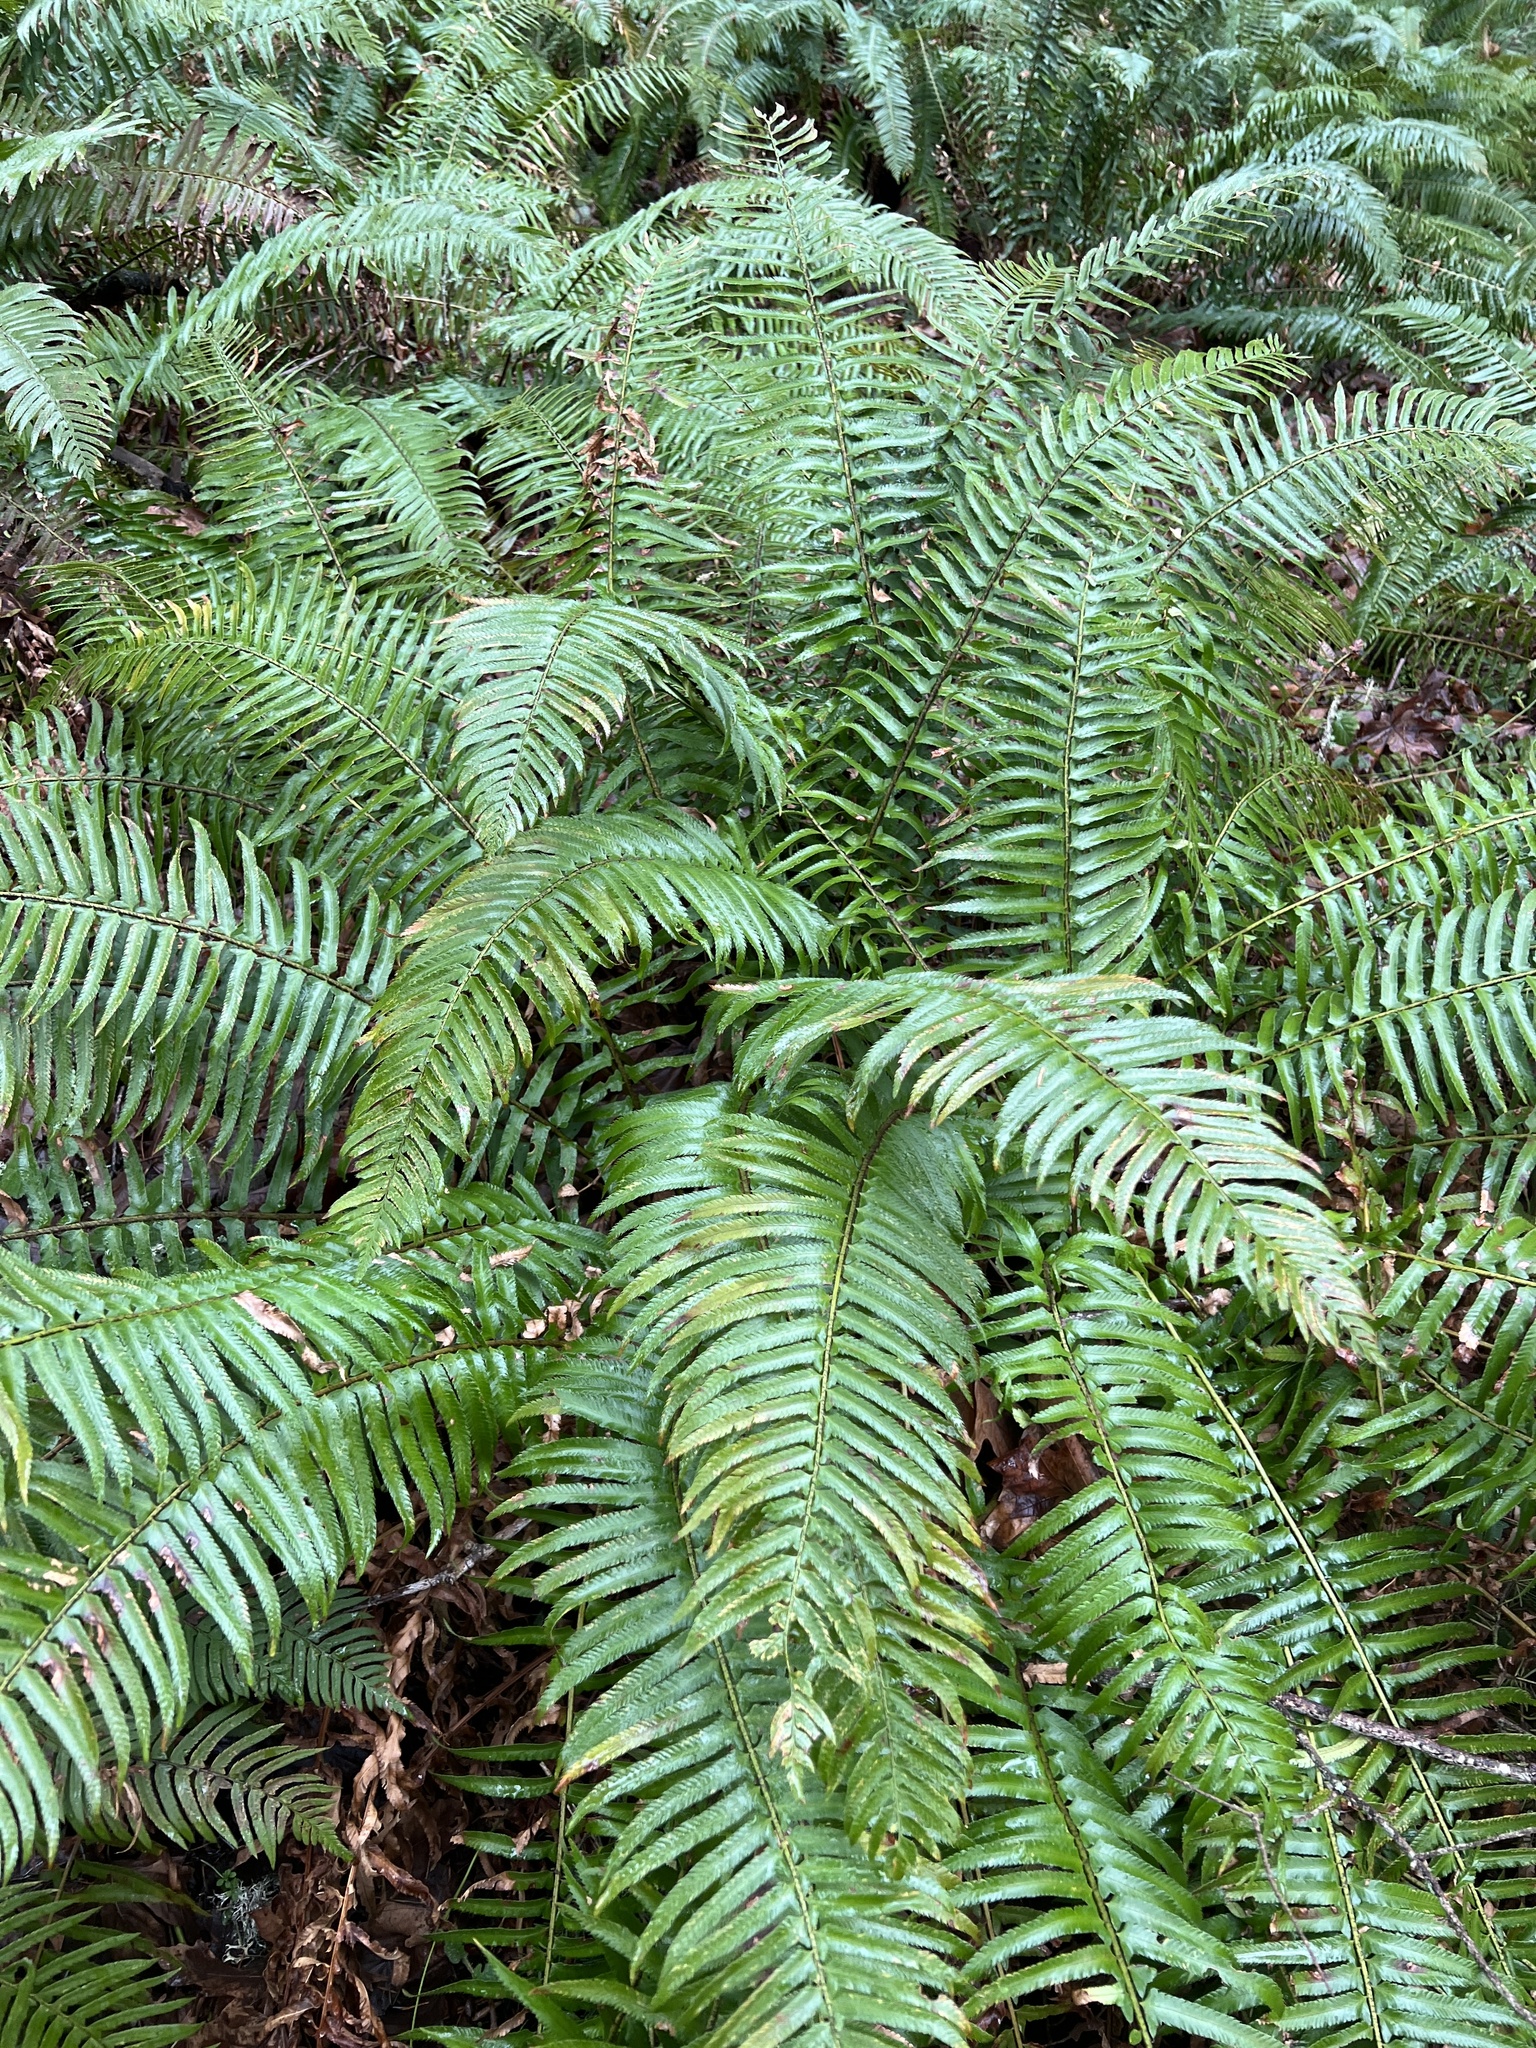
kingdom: Plantae
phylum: Tracheophyta
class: Polypodiopsida
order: Polypodiales
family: Dryopteridaceae
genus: Polystichum
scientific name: Polystichum munitum
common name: Western sword-fern
